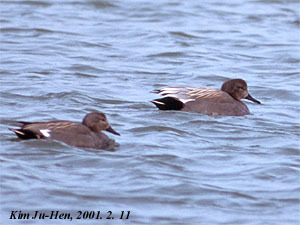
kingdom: Animalia
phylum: Chordata
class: Aves
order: Anseriformes
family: Anatidae
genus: Mareca
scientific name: Mareca strepera
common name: Gadwall
